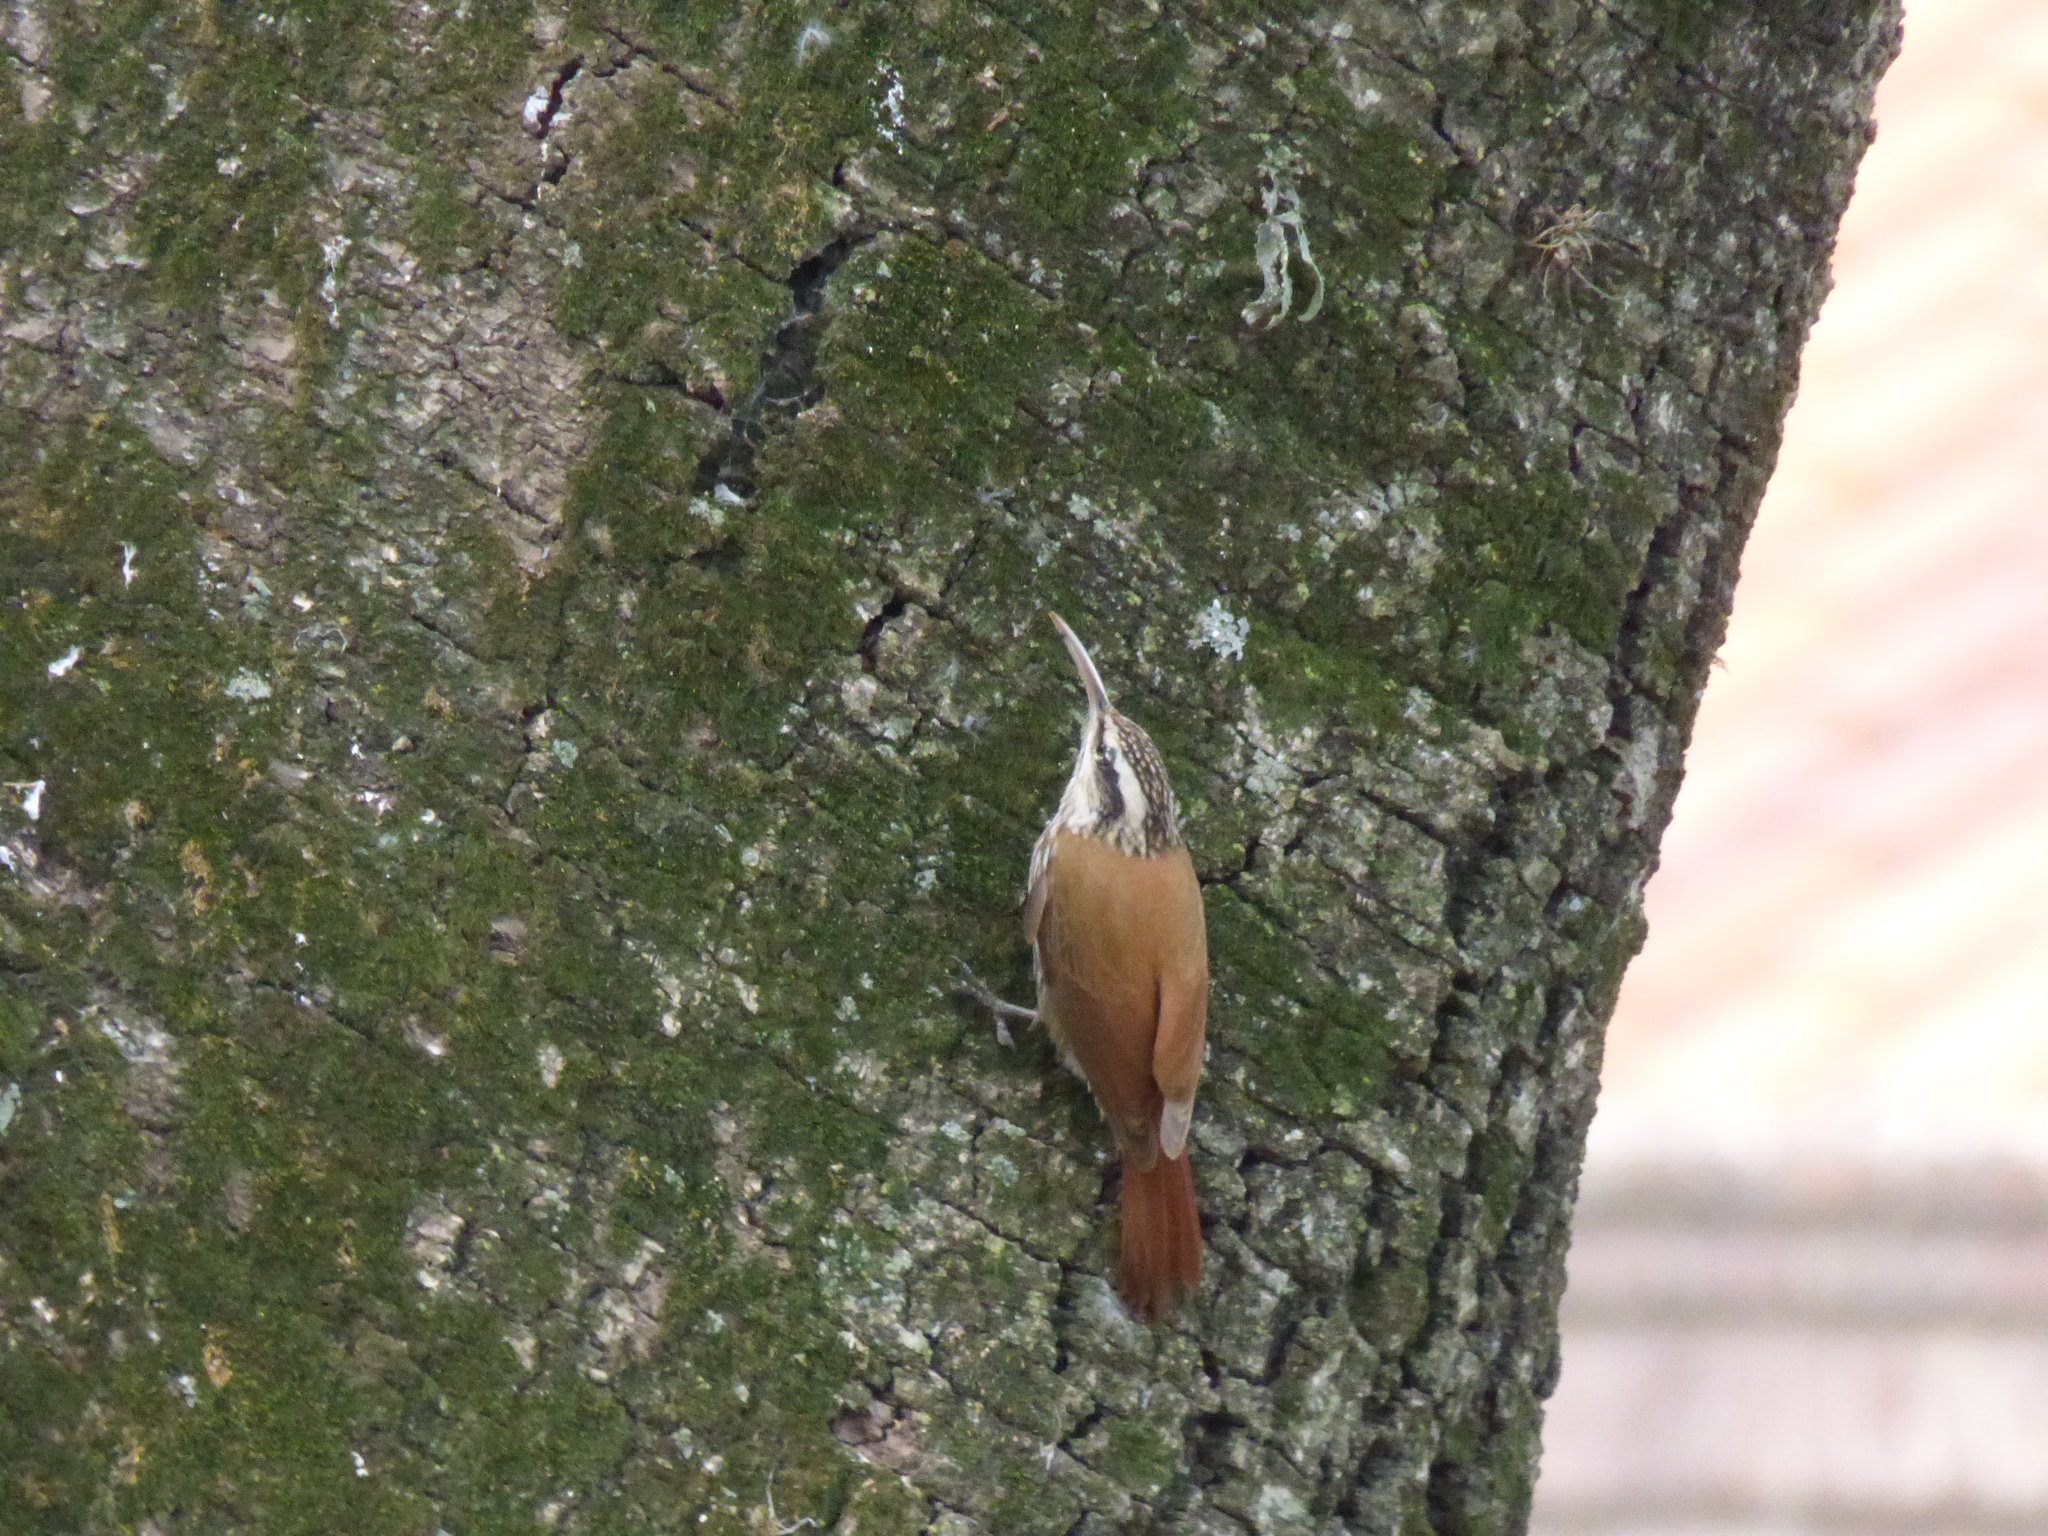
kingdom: Animalia
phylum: Chordata
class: Aves
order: Passeriformes
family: Furnariidae
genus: Lepidocolaptes
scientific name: Lepidocolaptes angustirostris
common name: Narrow-billed woodcreeper
